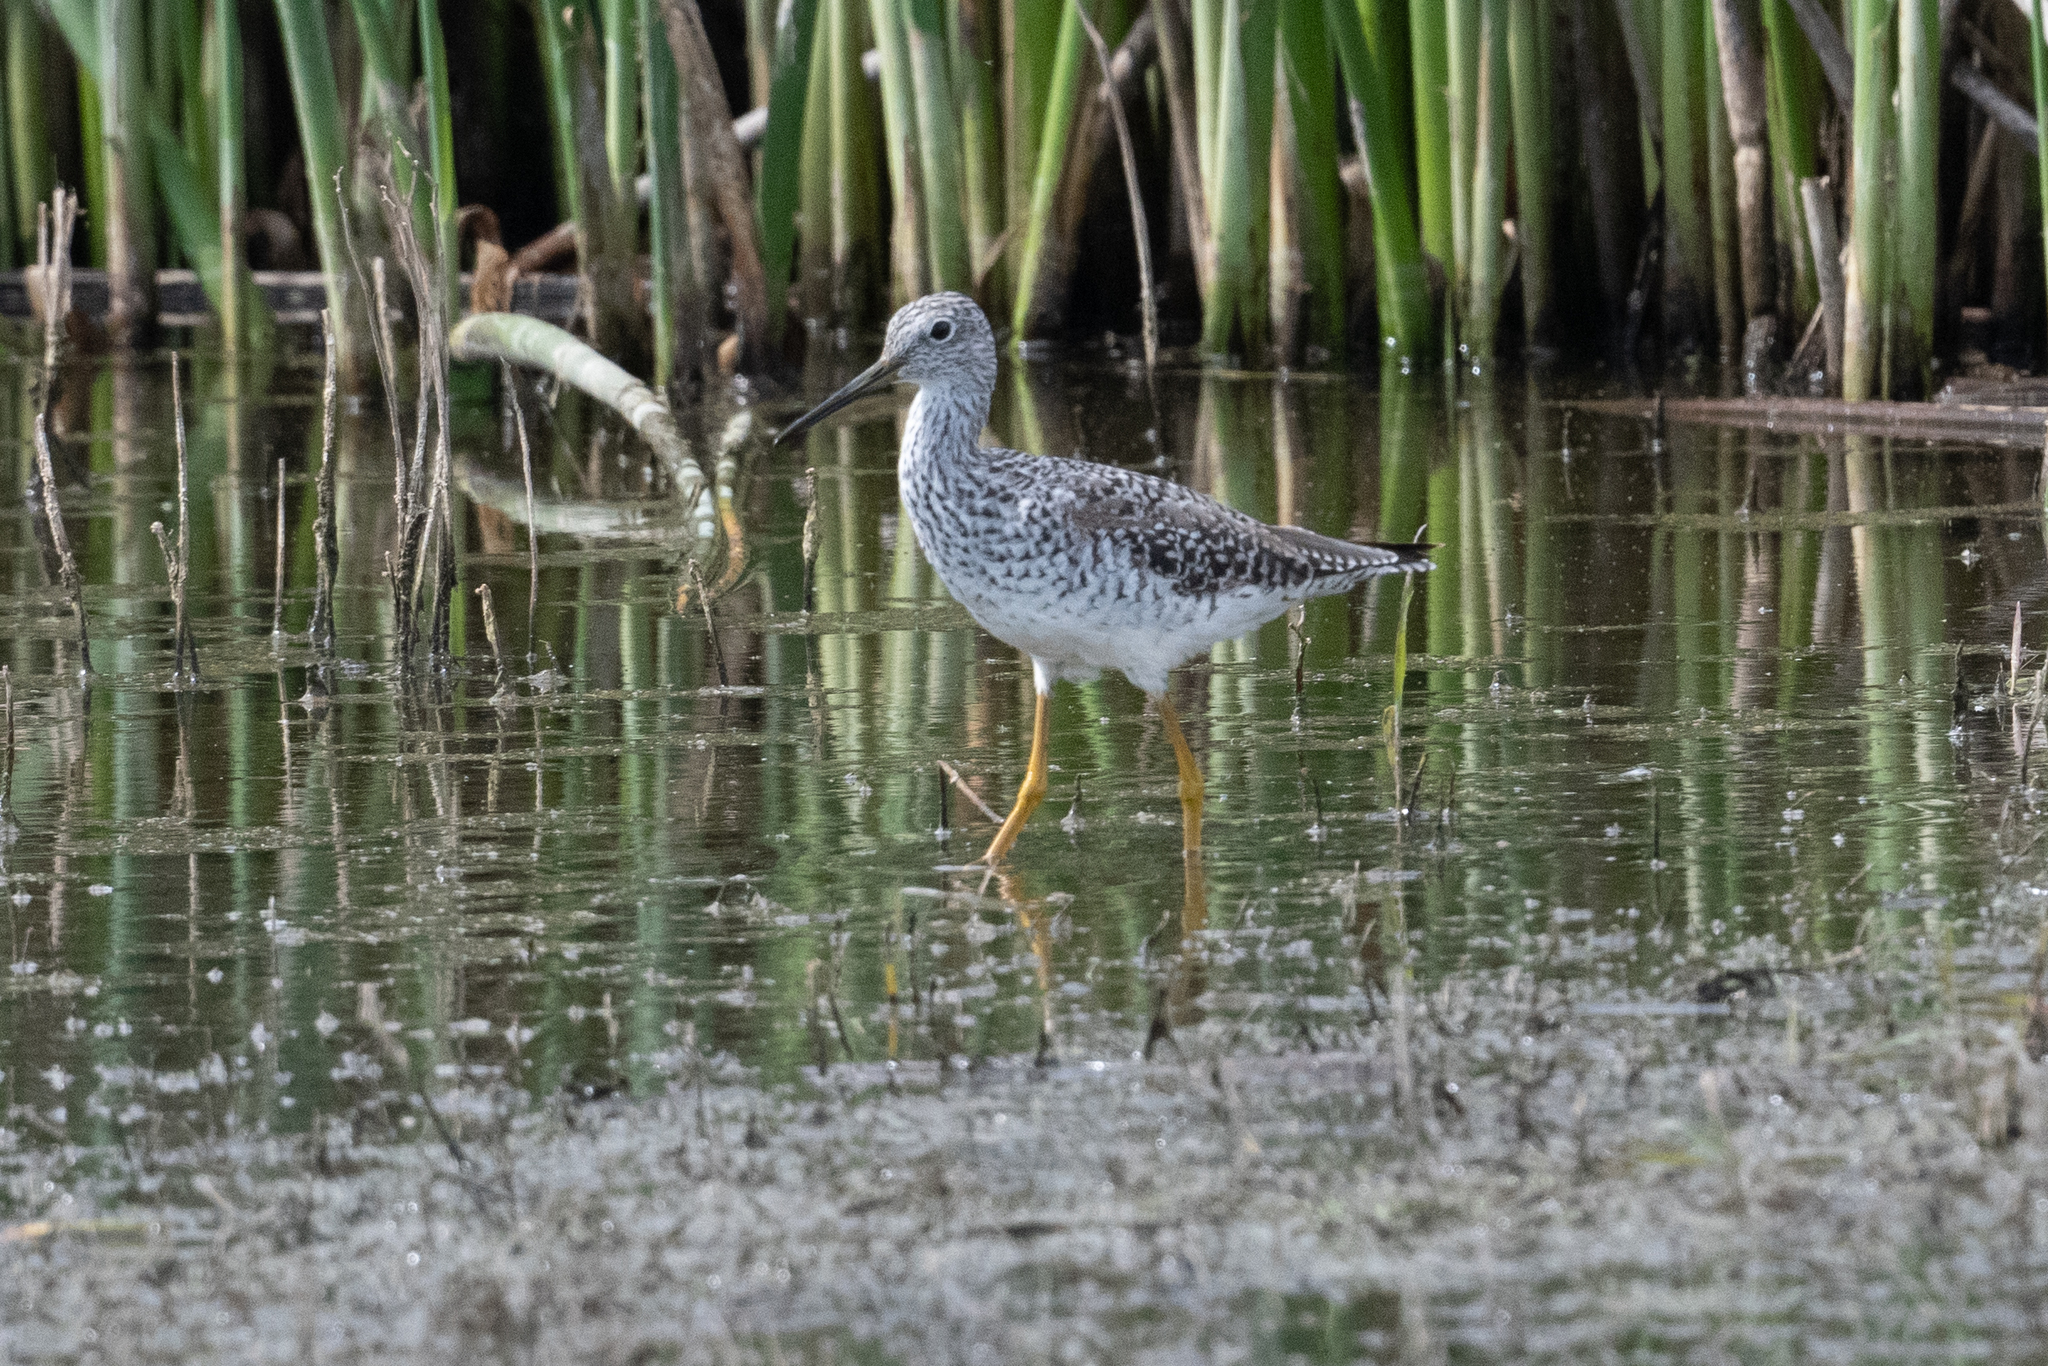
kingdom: Animalia
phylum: Chordata
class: Aves
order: Charadriiformes
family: Scolopacidae
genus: Tringa
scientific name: Tringa melanoleuca
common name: Greater yellowlegs
